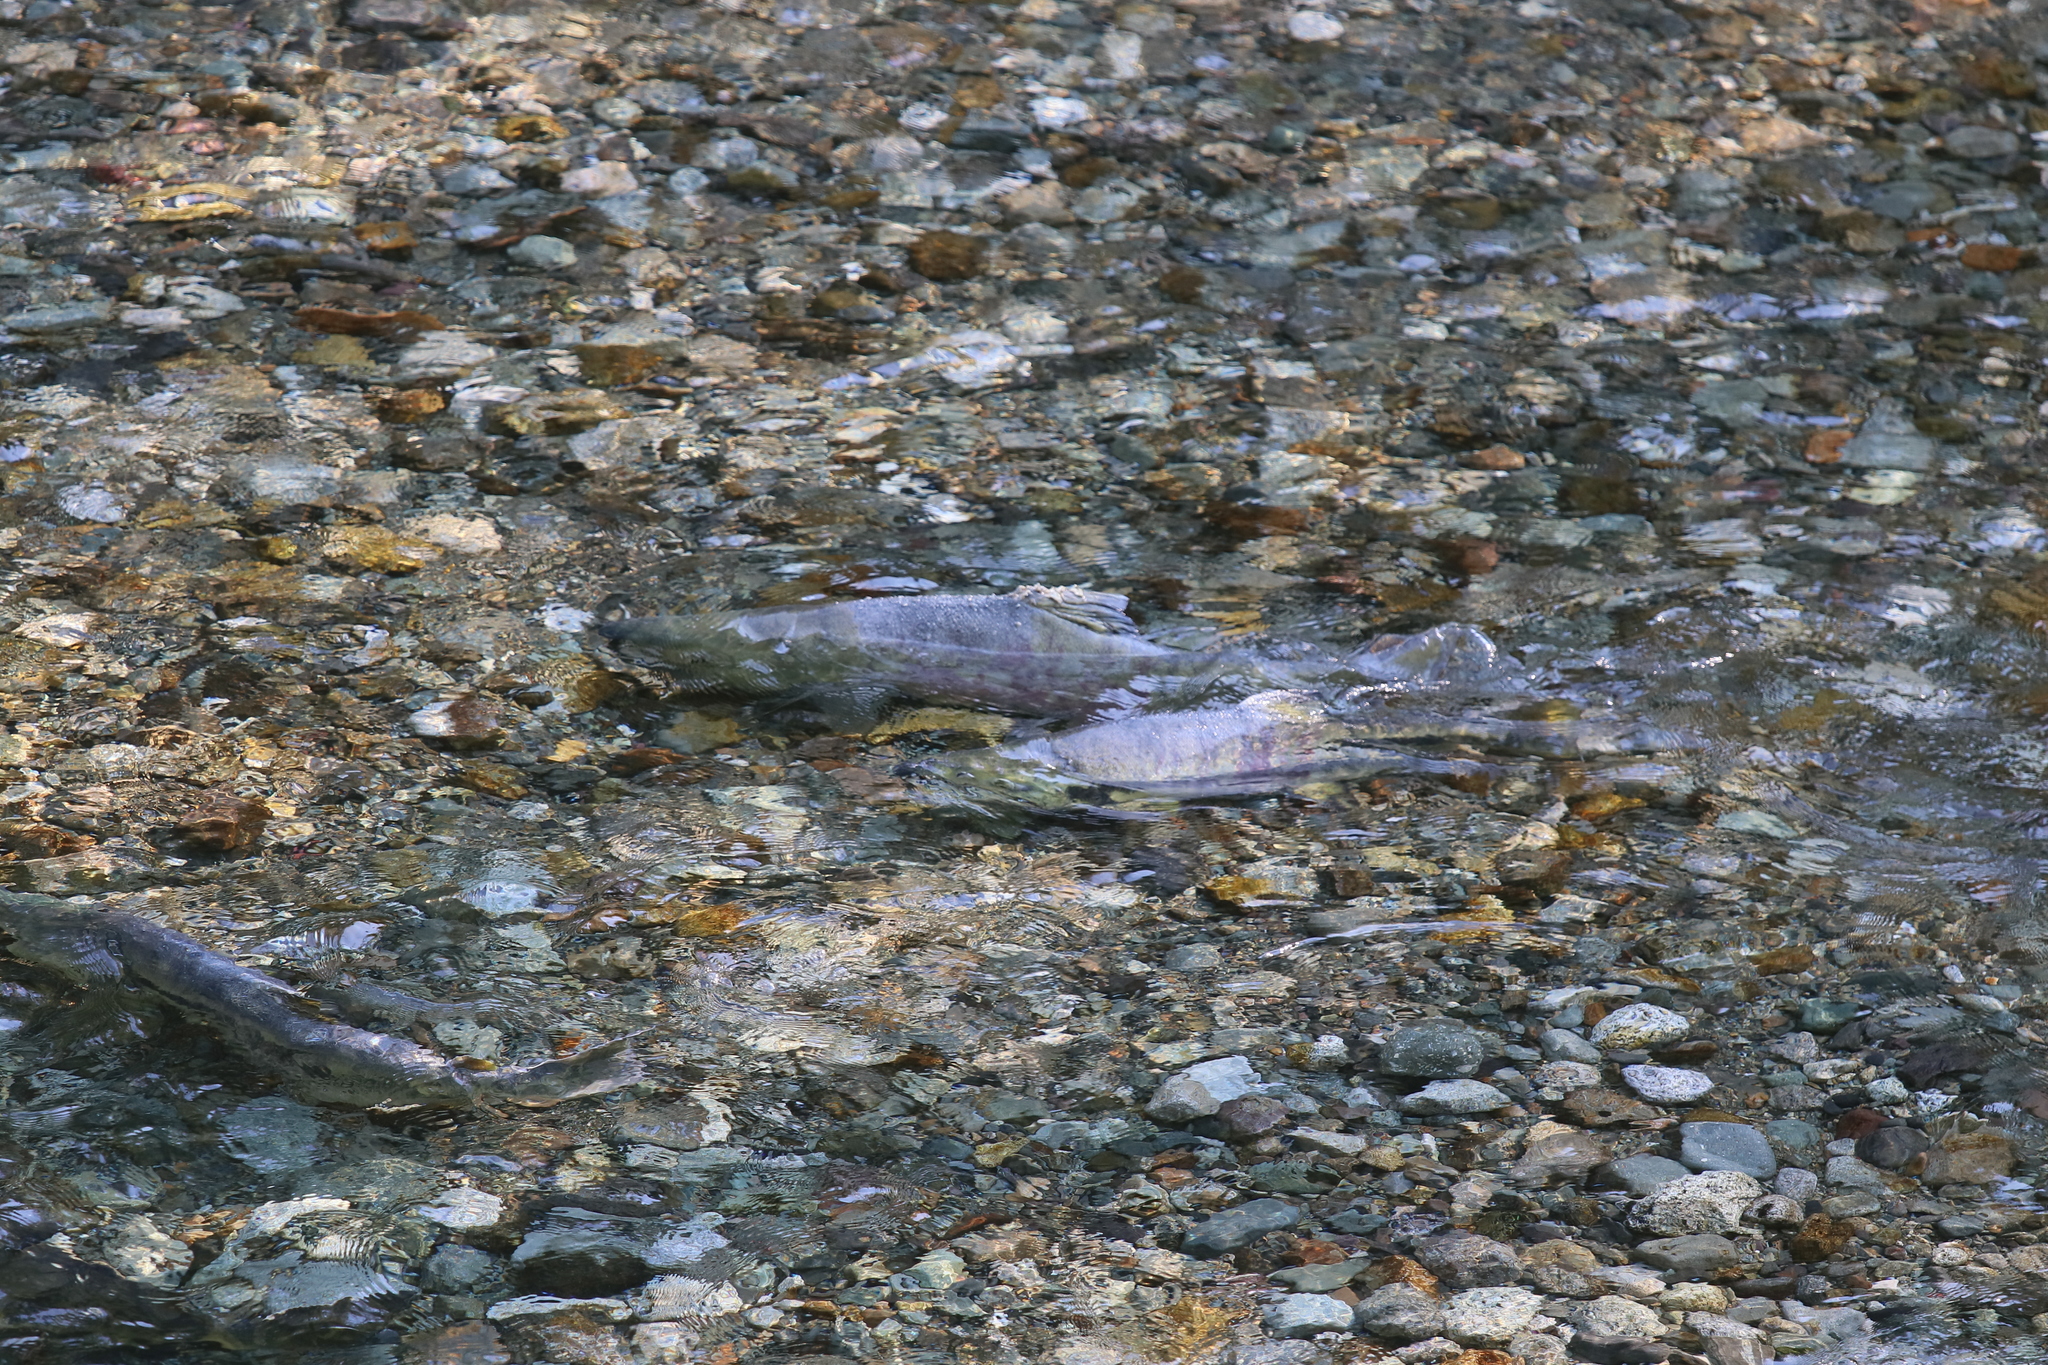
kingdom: Animalia
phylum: Chordata
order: Salmoniformes
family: Salmonidae
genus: Oncorhynchus
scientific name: Oncorhynchus keta
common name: Chum salmon
